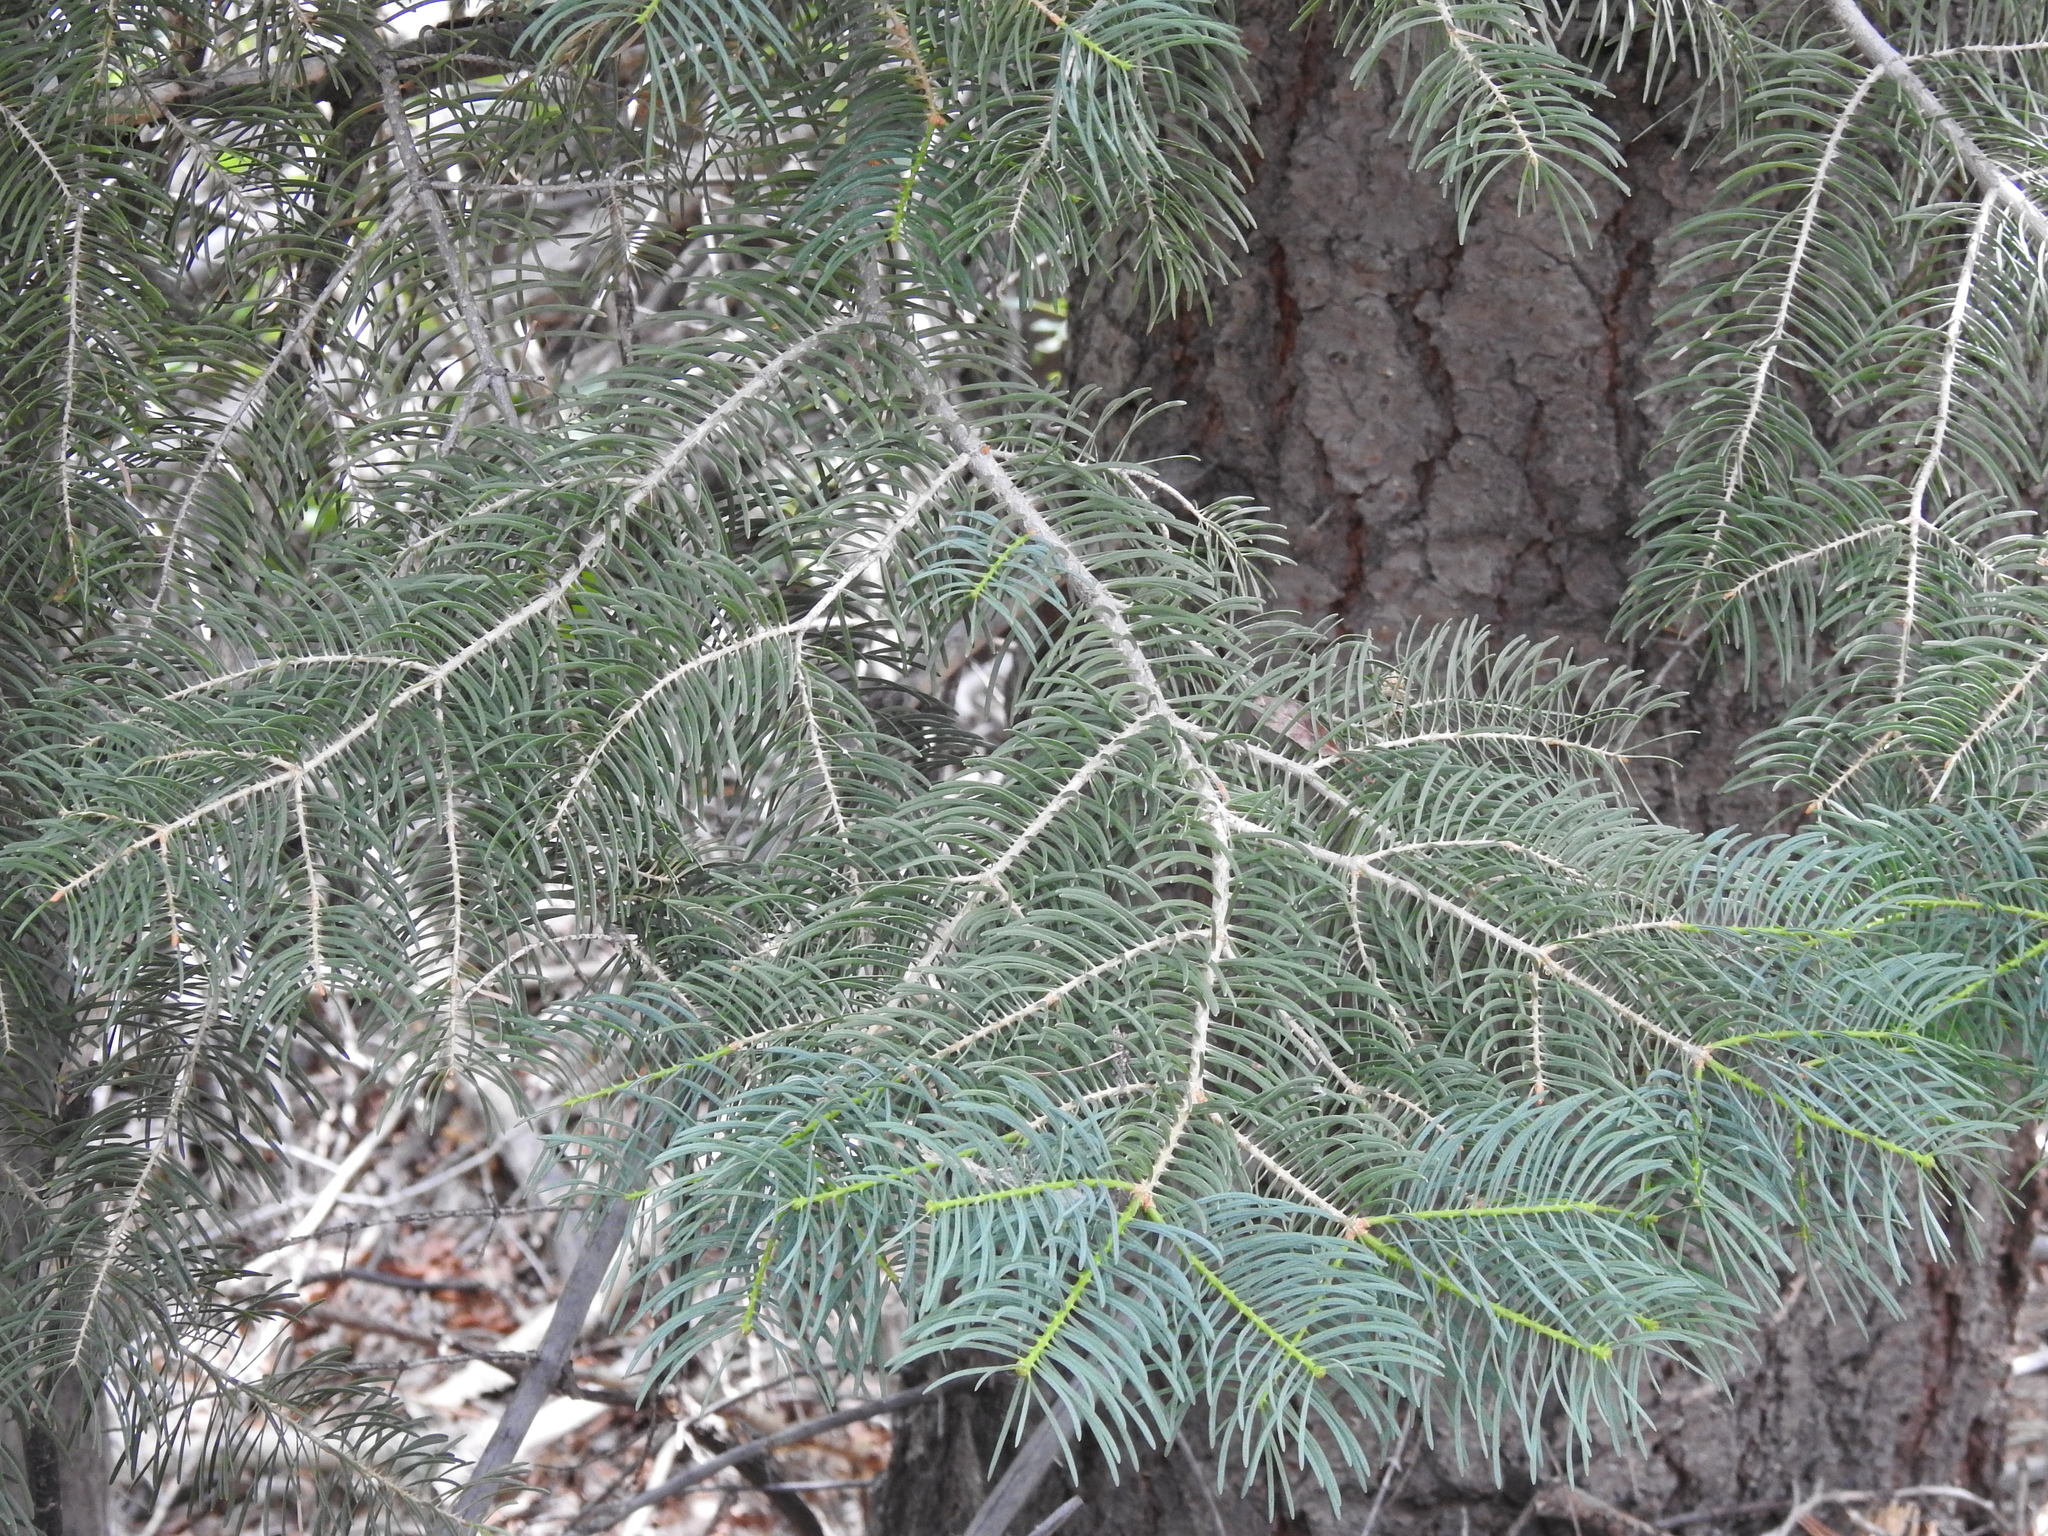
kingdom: Plantae
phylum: Tracheophyta
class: Pinopsida
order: Pinales
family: Pinaceae
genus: Abies
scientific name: Abies concolor
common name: Colorado fir
